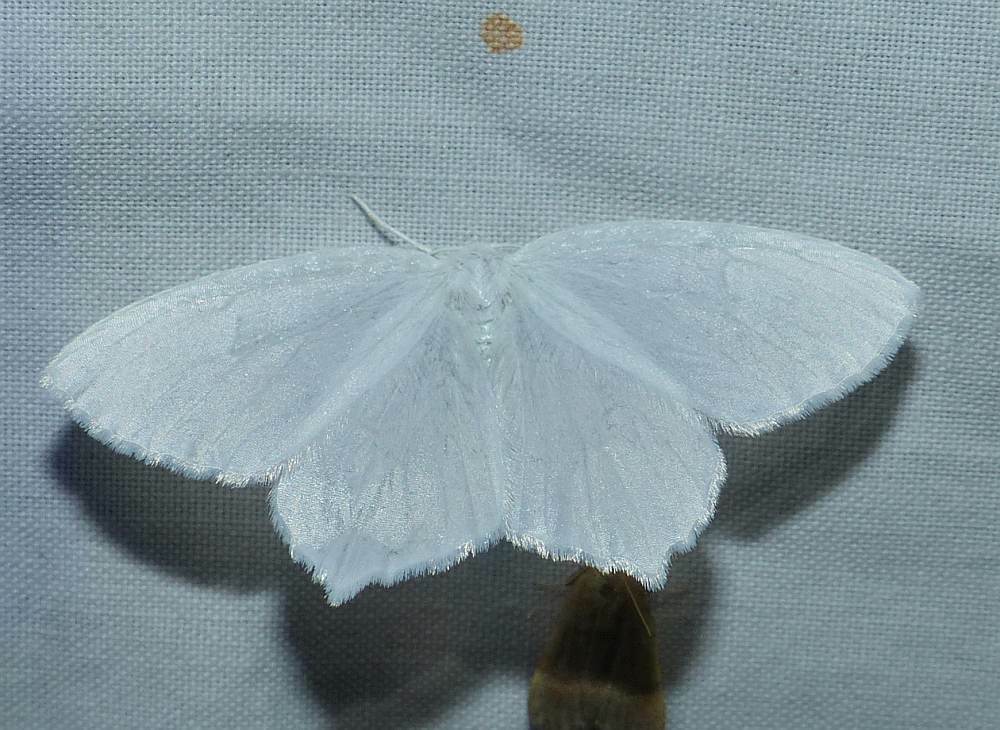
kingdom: Animalia
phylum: Arthropoda
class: Insecta
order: Lepidoptera
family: Geometridae
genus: Eugonobapta
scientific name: Eugonobapta nivosaria
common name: Snowy geometer
